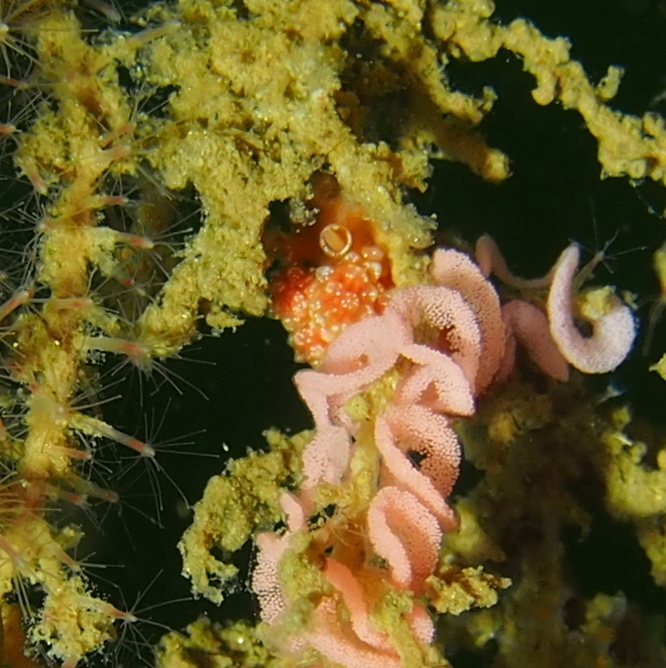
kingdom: Animalia
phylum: Mollusca
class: Gastropoda
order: Nudibranchia
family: Dotidae
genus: Doto
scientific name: Doto fragilis
